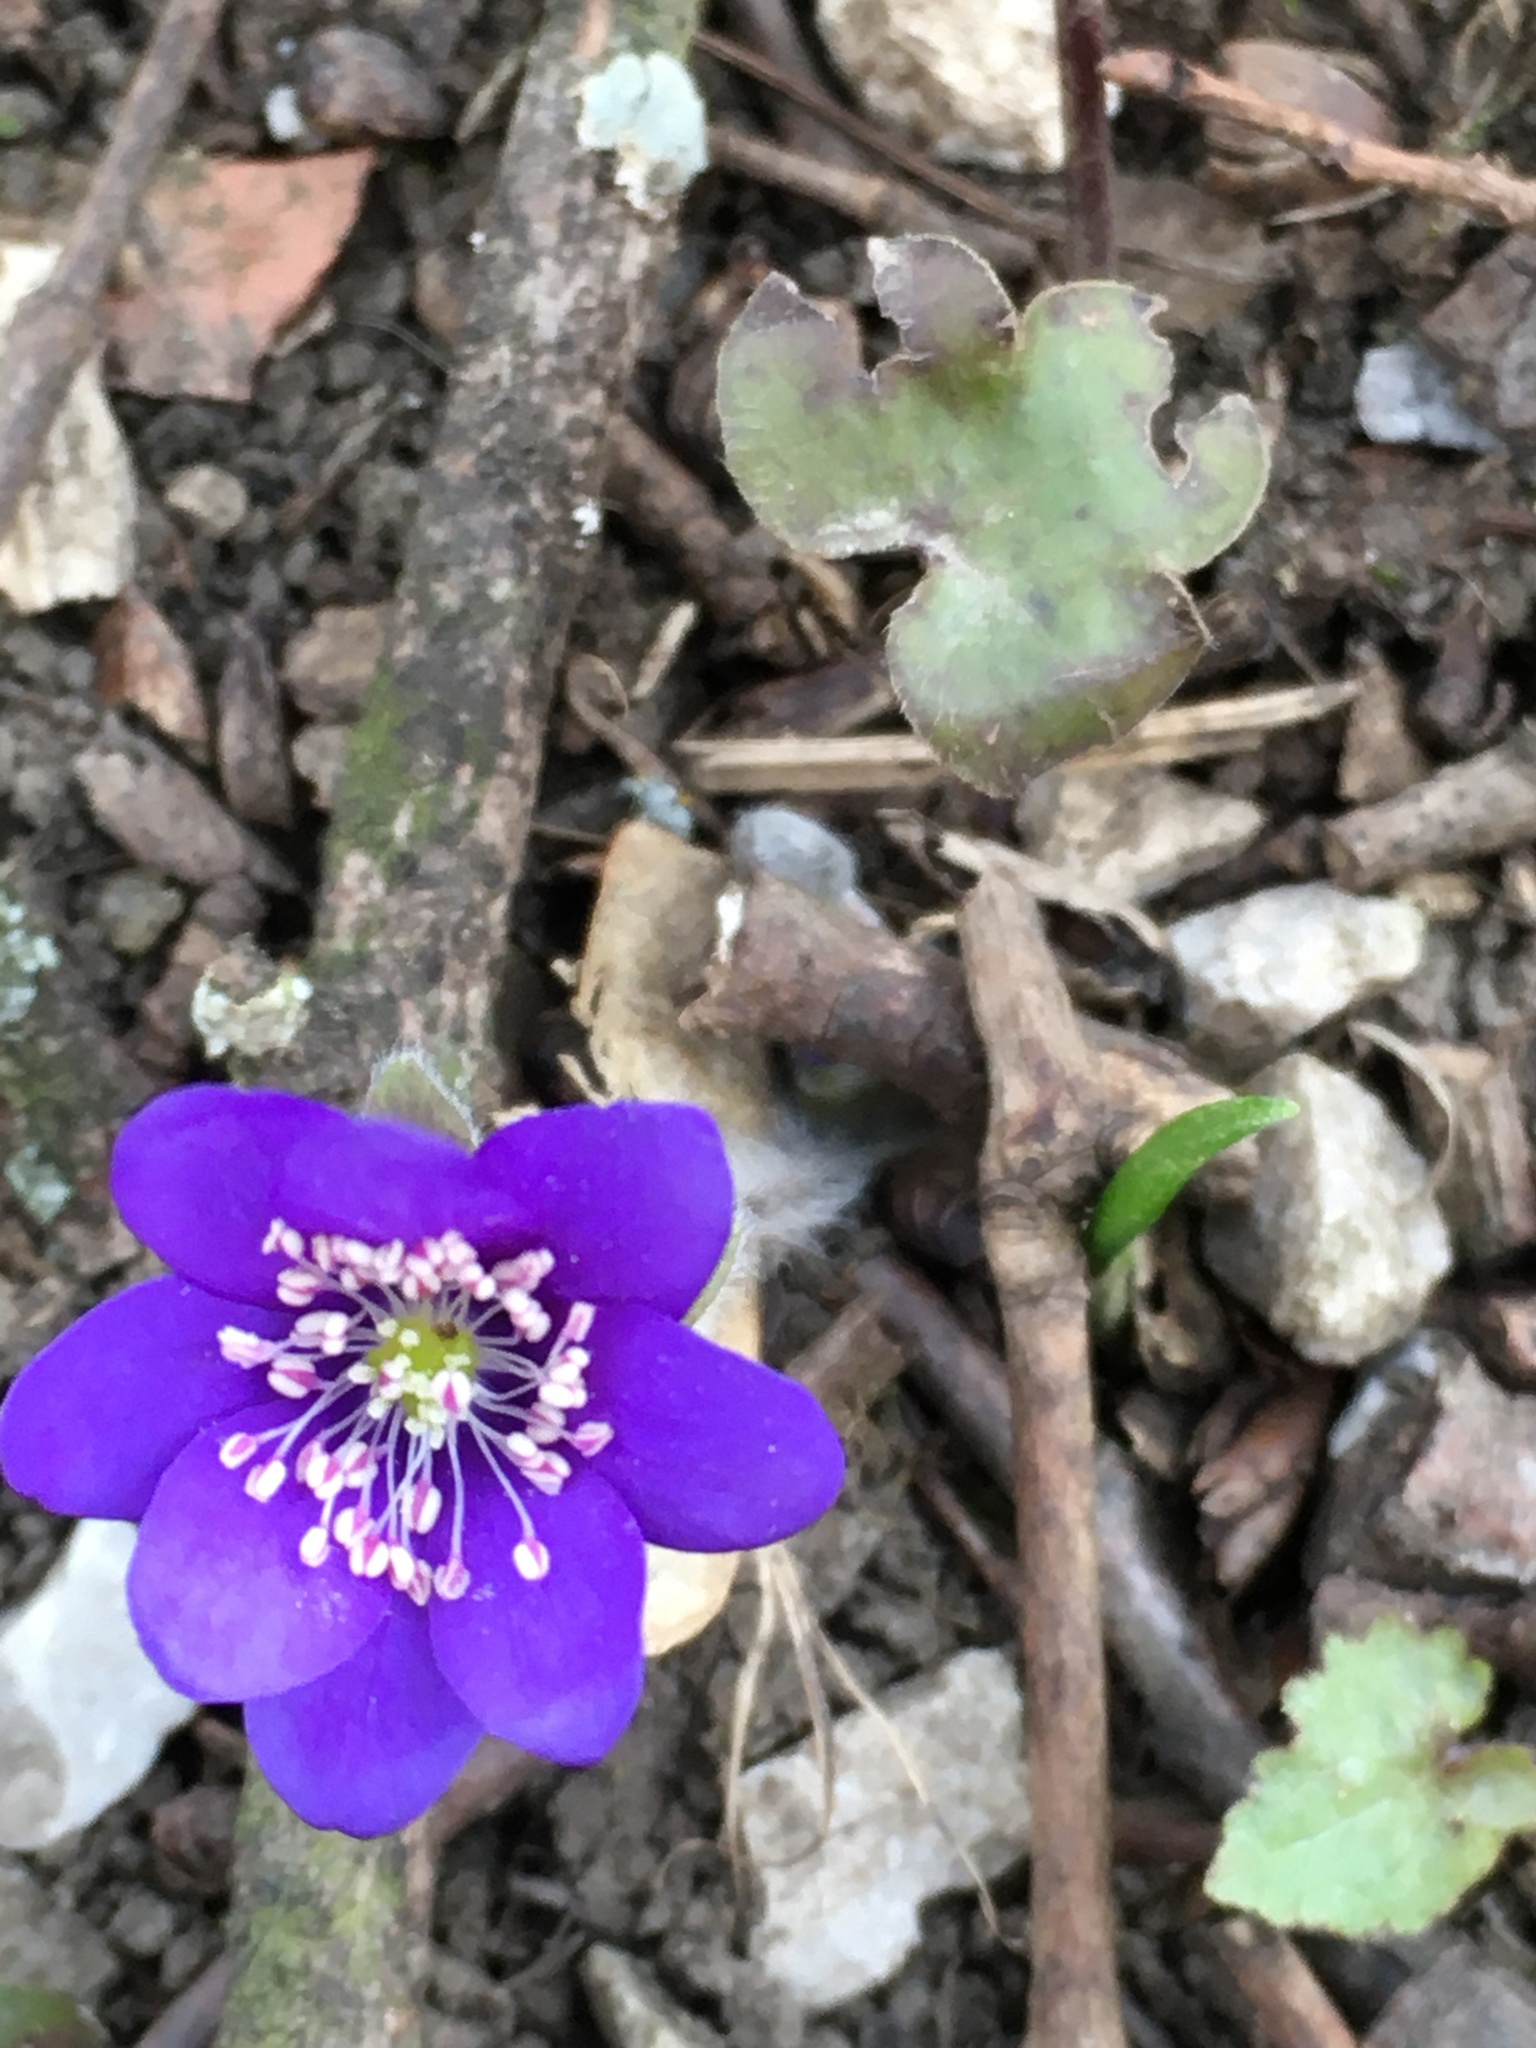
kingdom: Plantae
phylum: Tracheophyta
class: Magnoliopsida
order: Ranunculales
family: Ranunculaceae
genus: Hepatica
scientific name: Hepatica nobilis
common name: Liverleaf
